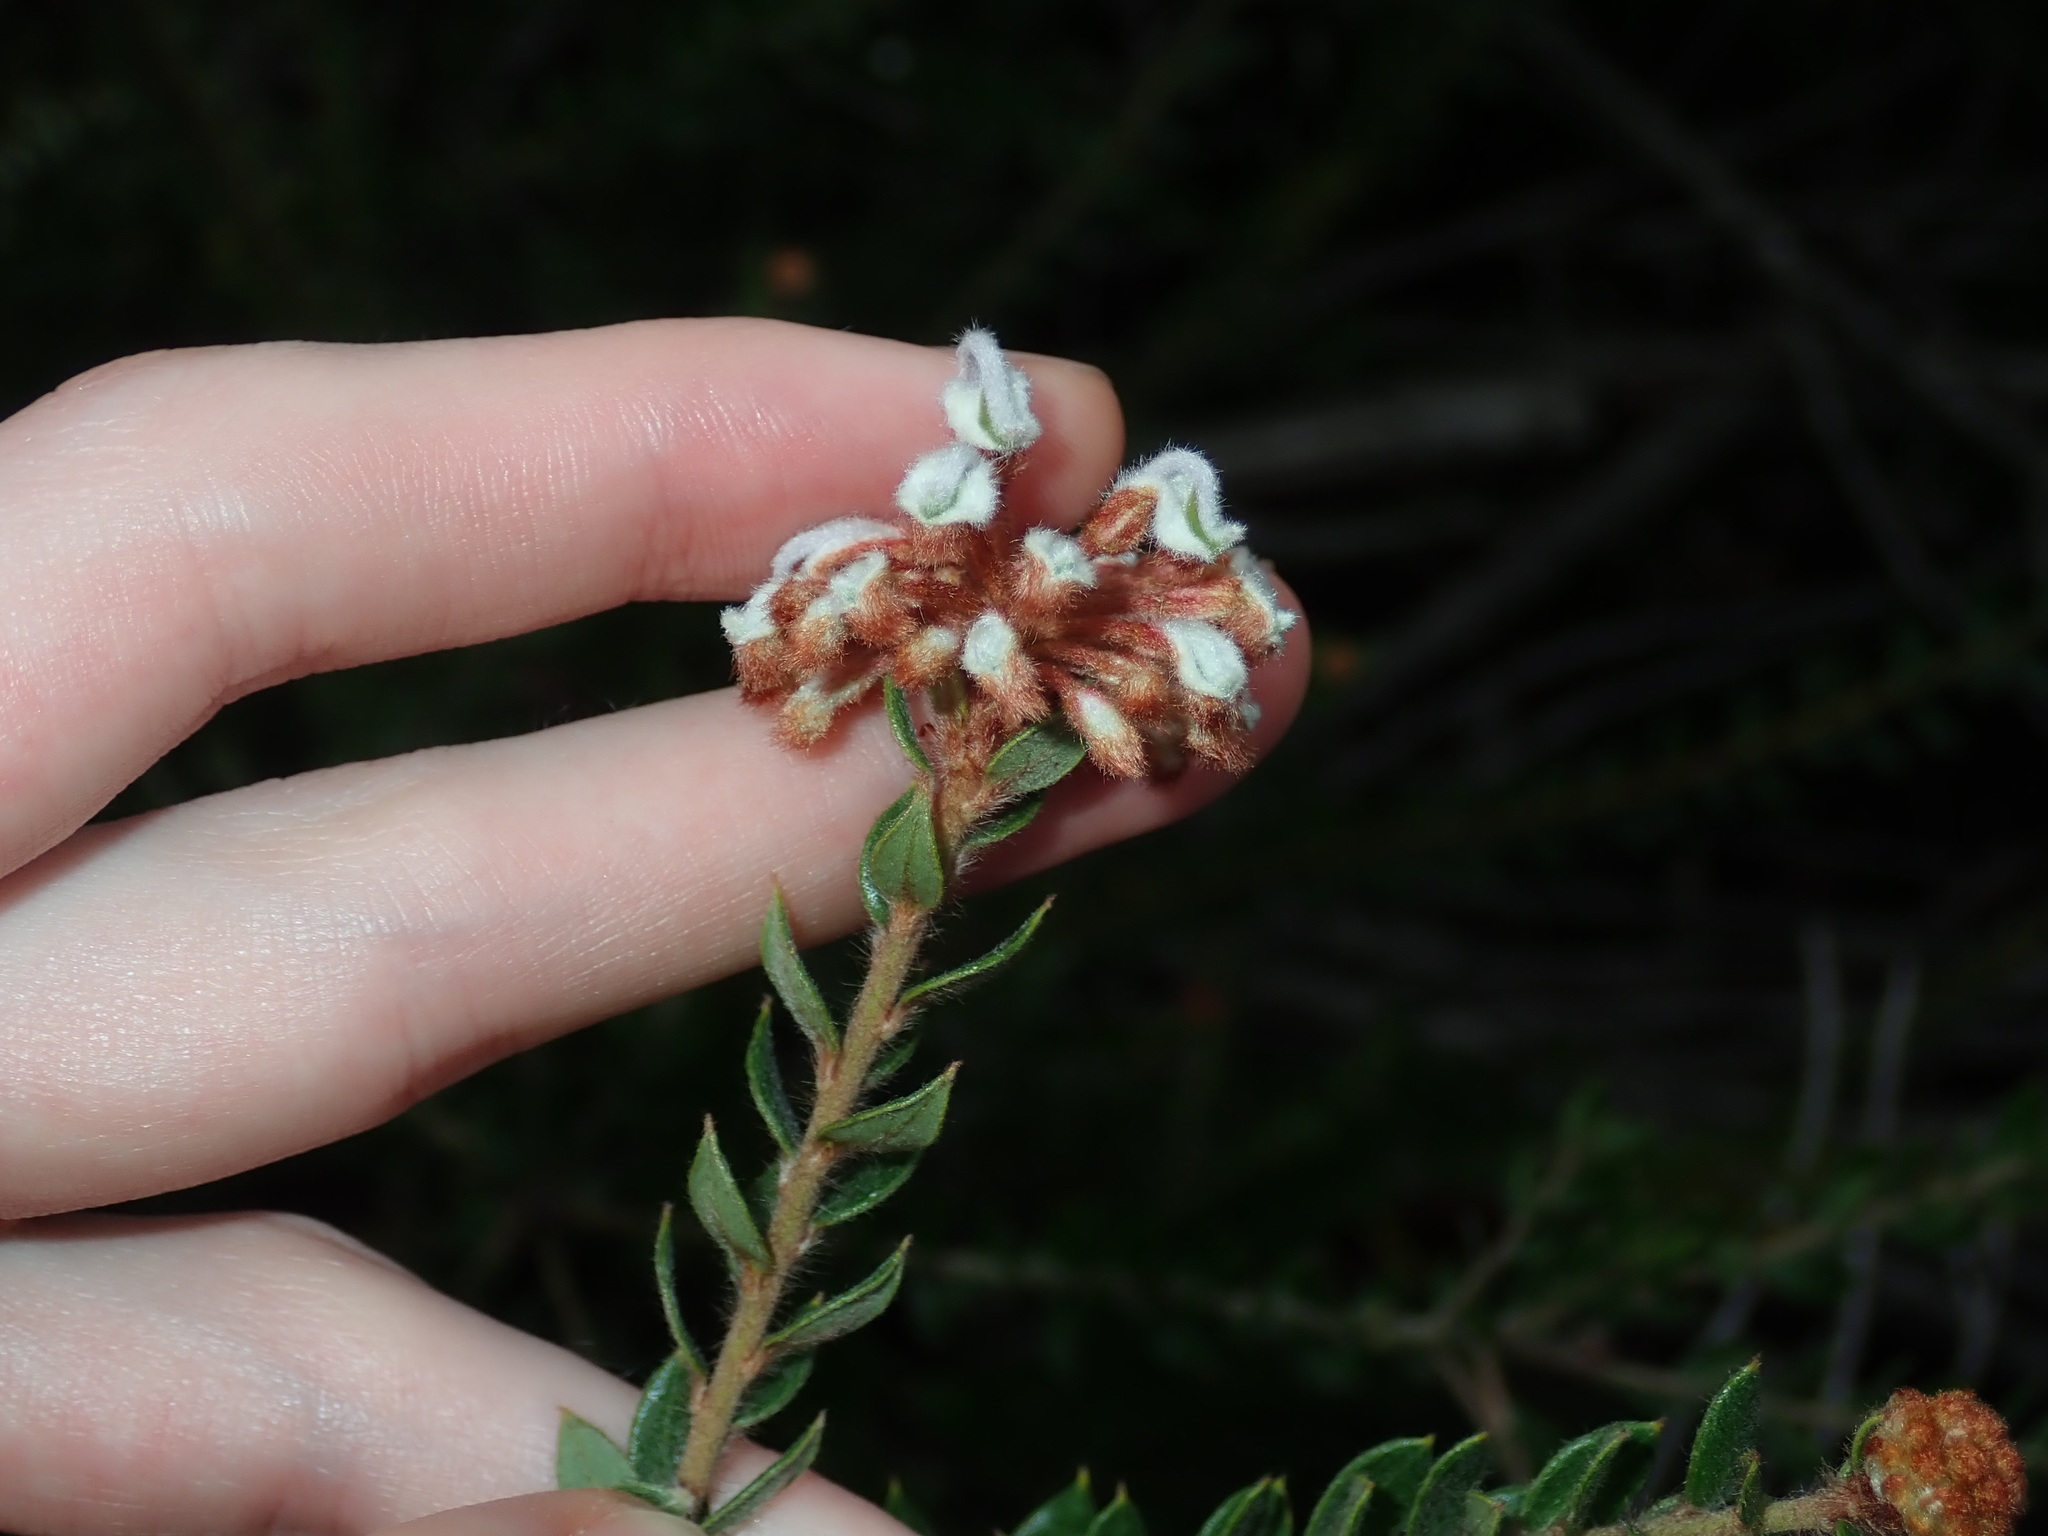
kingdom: Plantae
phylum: Tracheophyta
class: Magnoliopsida
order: Proteales
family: Proteaceae
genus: Grevillea
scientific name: Grevillea buxifolia
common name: Grey spiderflower
